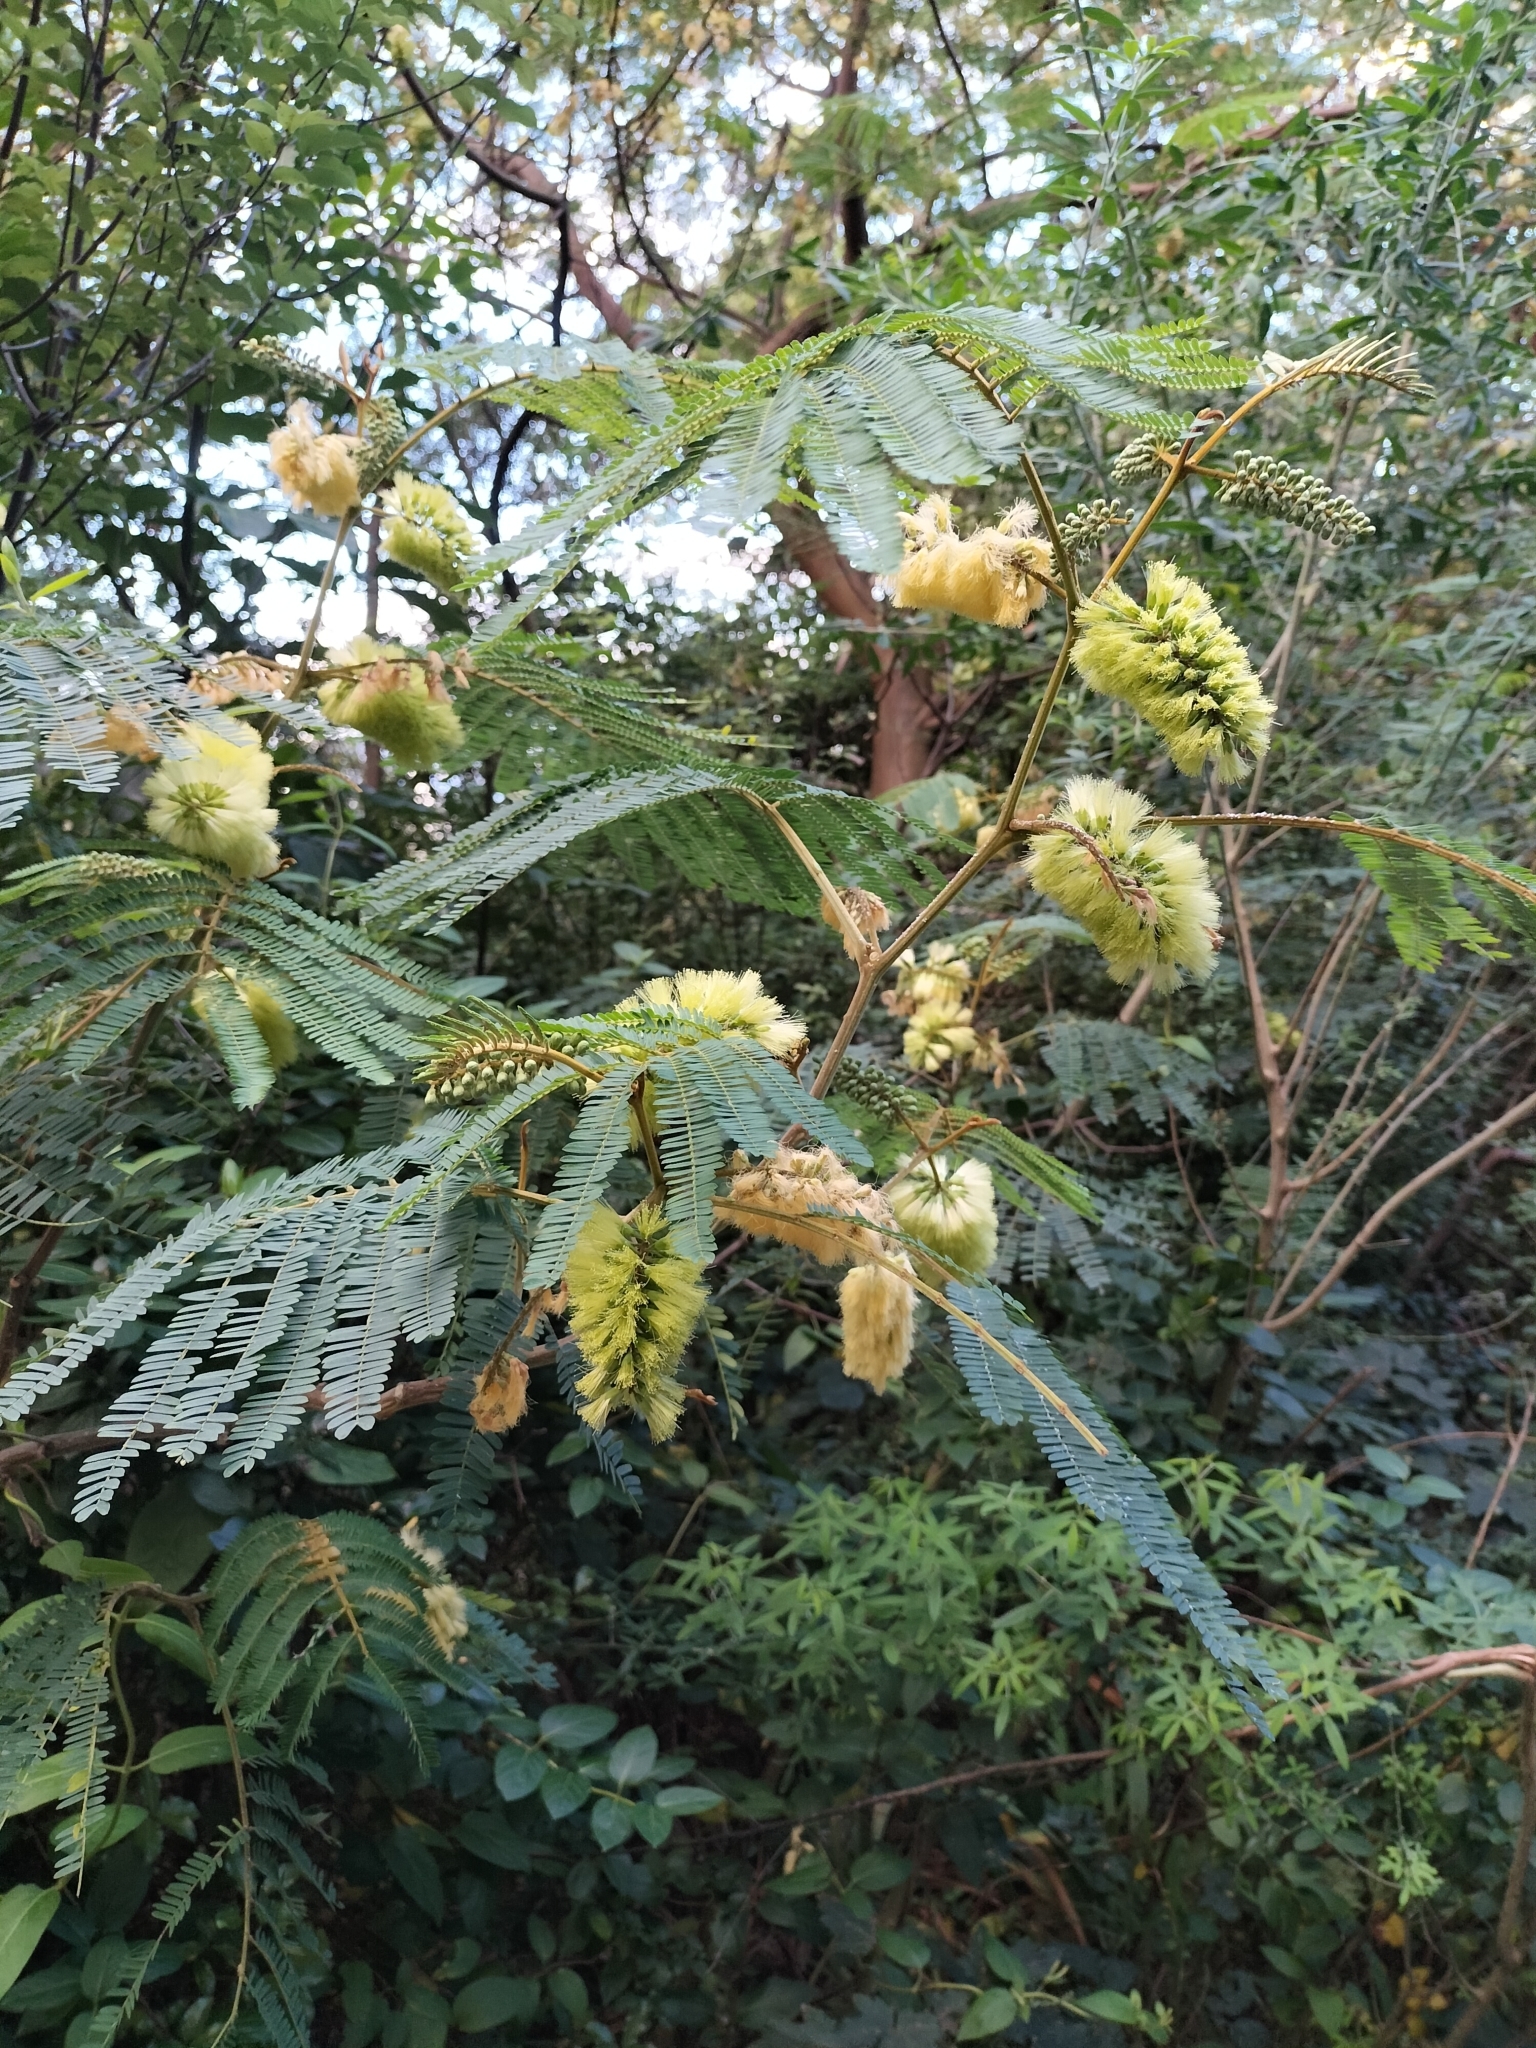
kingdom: Plantae
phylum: Tracheophyta
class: Magnoliopsida
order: Fabales
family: Fabaceae
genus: Paraserianthes
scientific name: Paraserianthes lophantha
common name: Plume albizia
